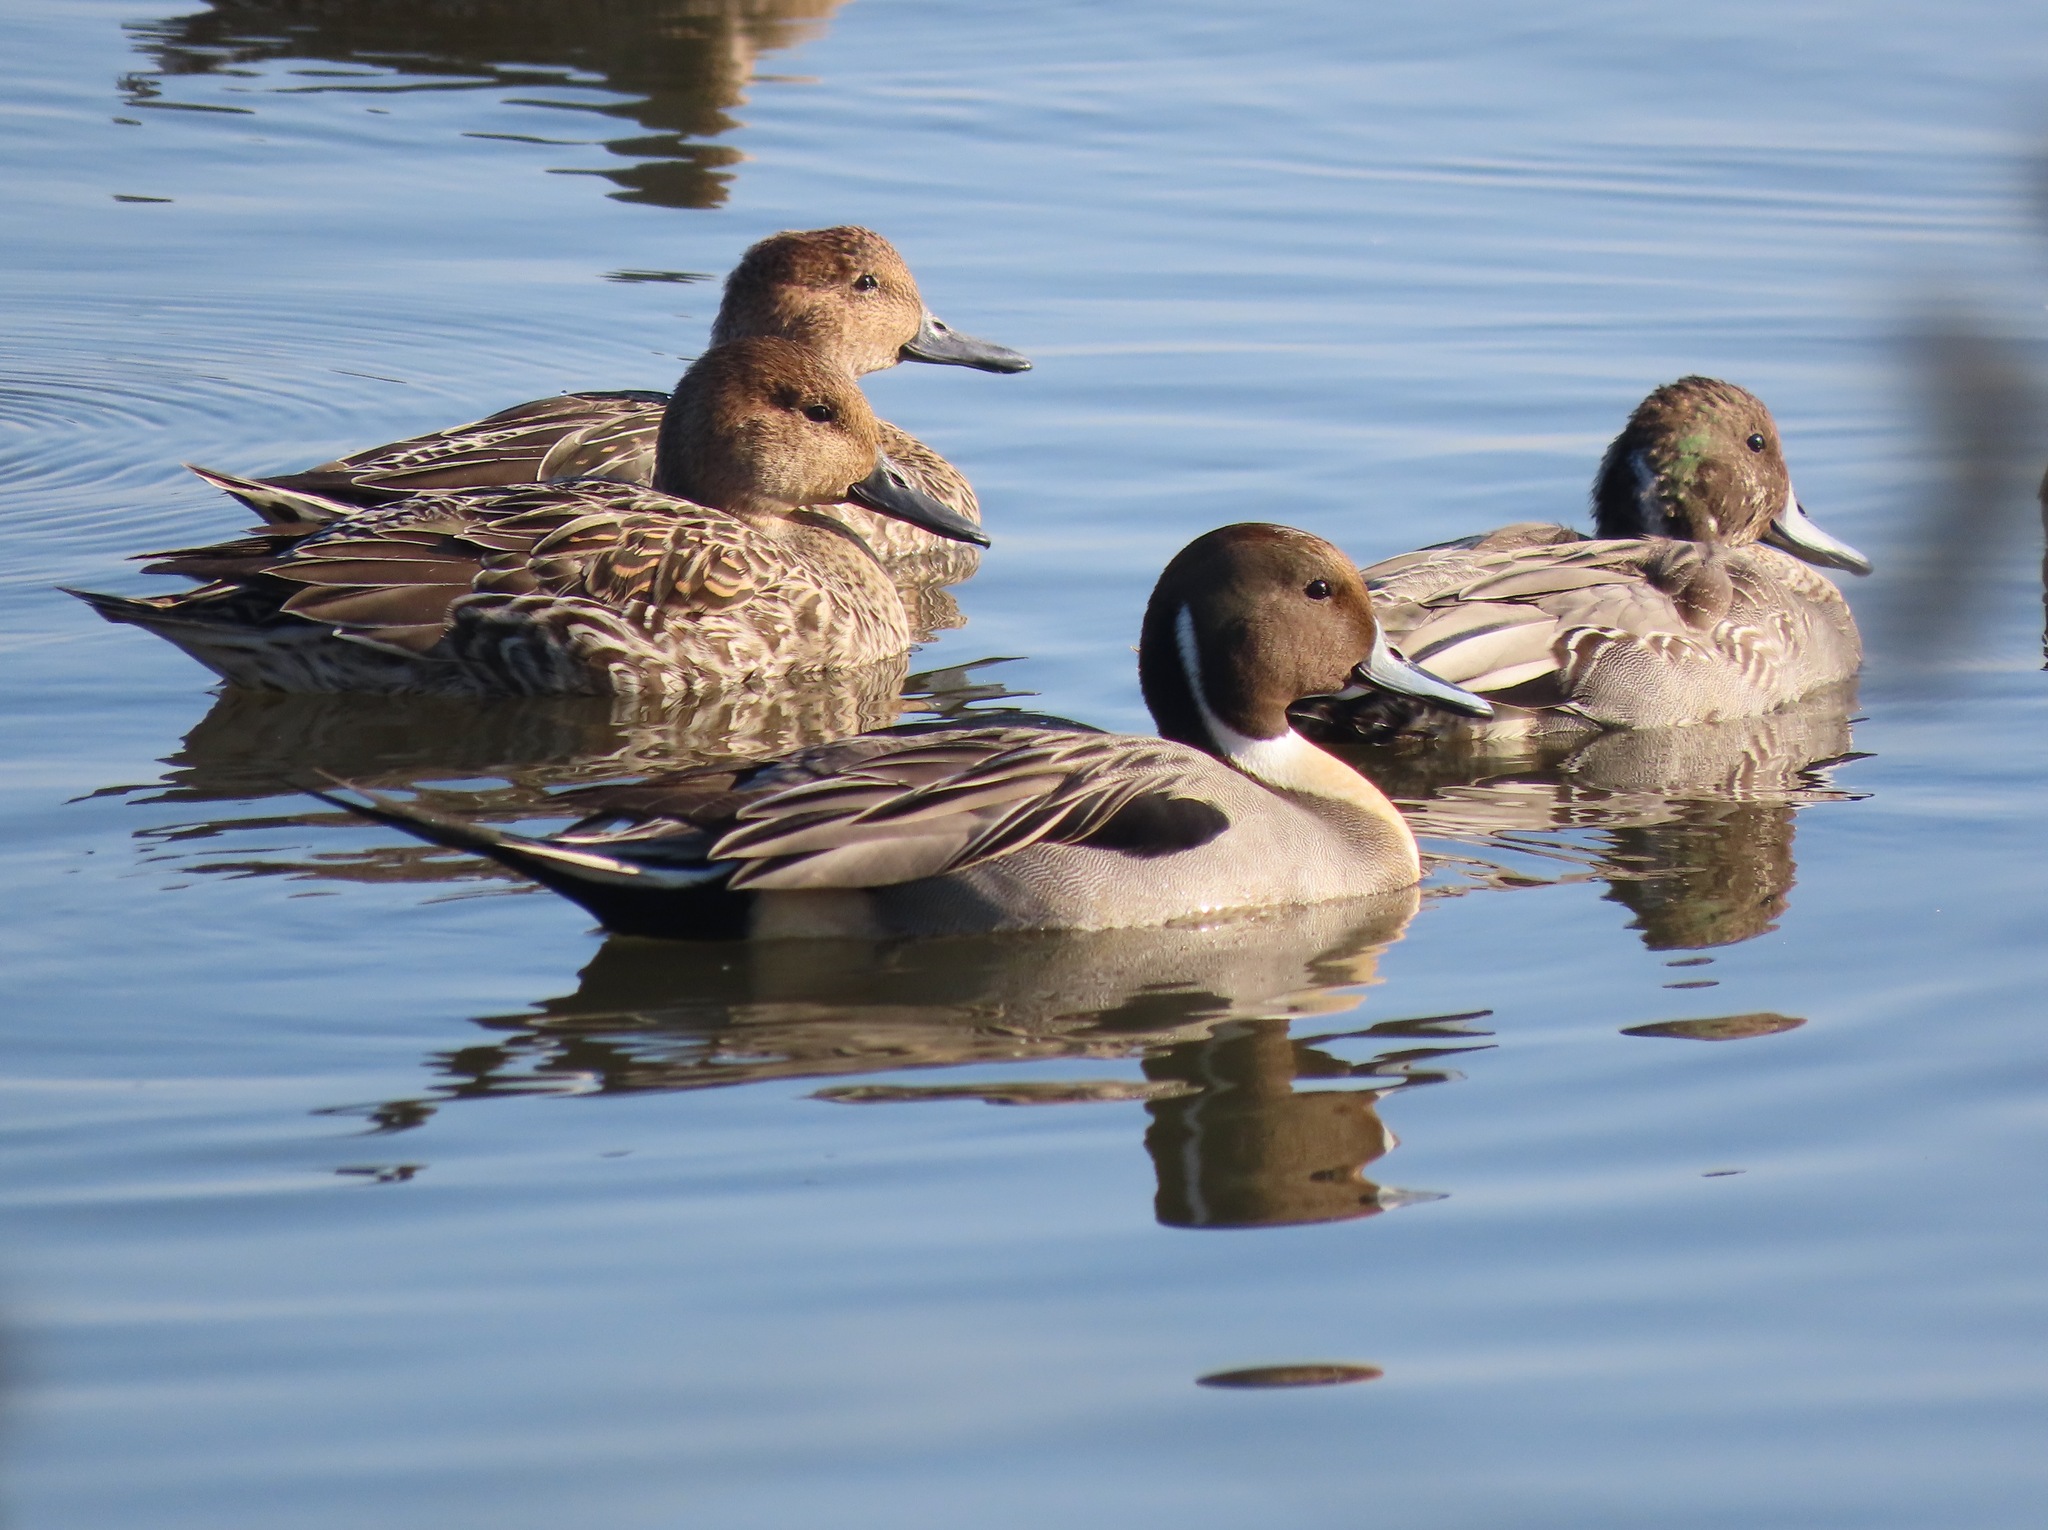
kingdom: Animalia
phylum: Chordata
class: Aves
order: Anseriformes
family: Anatidae
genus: Anas
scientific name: Anas acuta
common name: Northern pintail
